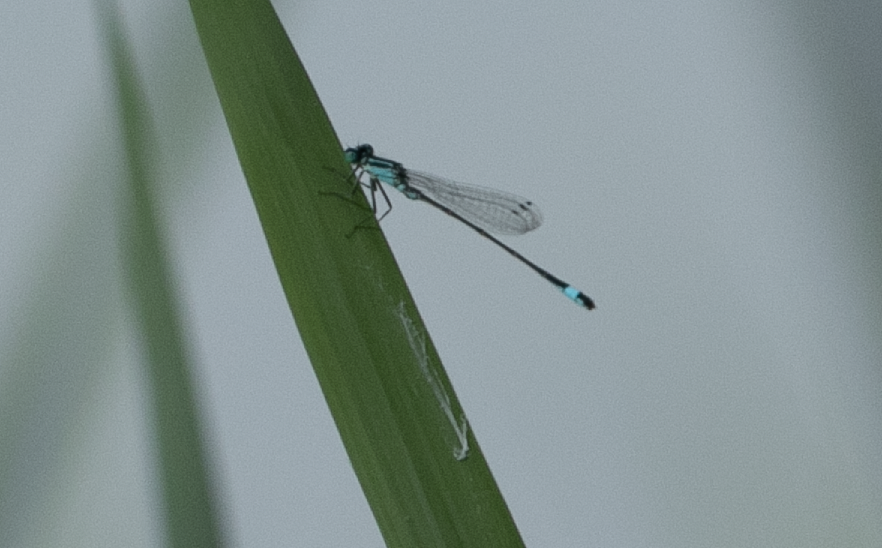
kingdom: Animalia
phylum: Arthropoda
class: Insecta
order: Odonata
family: Coenagrionidae
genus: Ischnura
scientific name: Ischnura elegans
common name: Blue-tailed damselfly
